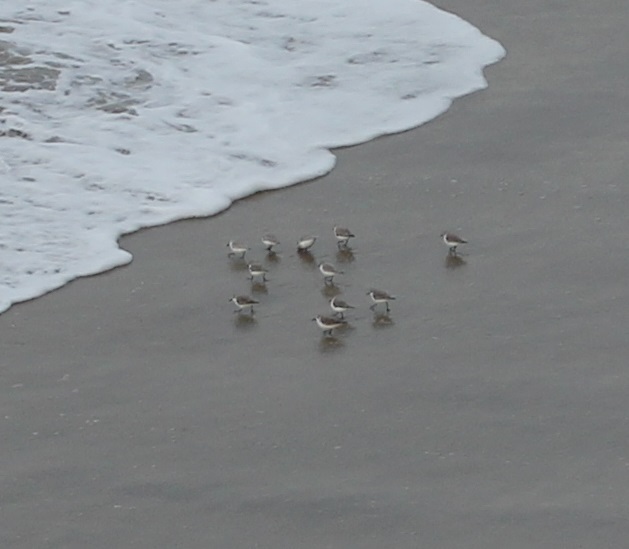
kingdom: Animalia
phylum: Chordata
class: Aves
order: Charadriiformes
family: Scolopacidae
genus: Calidris
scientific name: Calidris alba
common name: Sanderling
